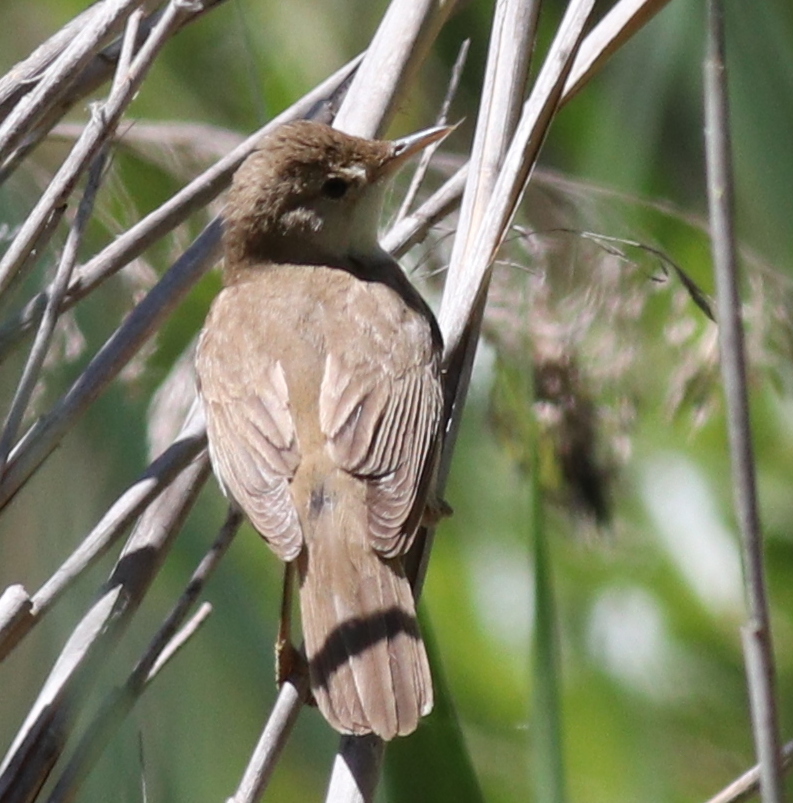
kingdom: Animalia
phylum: Chordata
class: Aves
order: Passeriformes
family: Acrocephalidae
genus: Acrocephalus
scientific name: Acrocephalus scirpaceus
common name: Eurasian reed warbler
